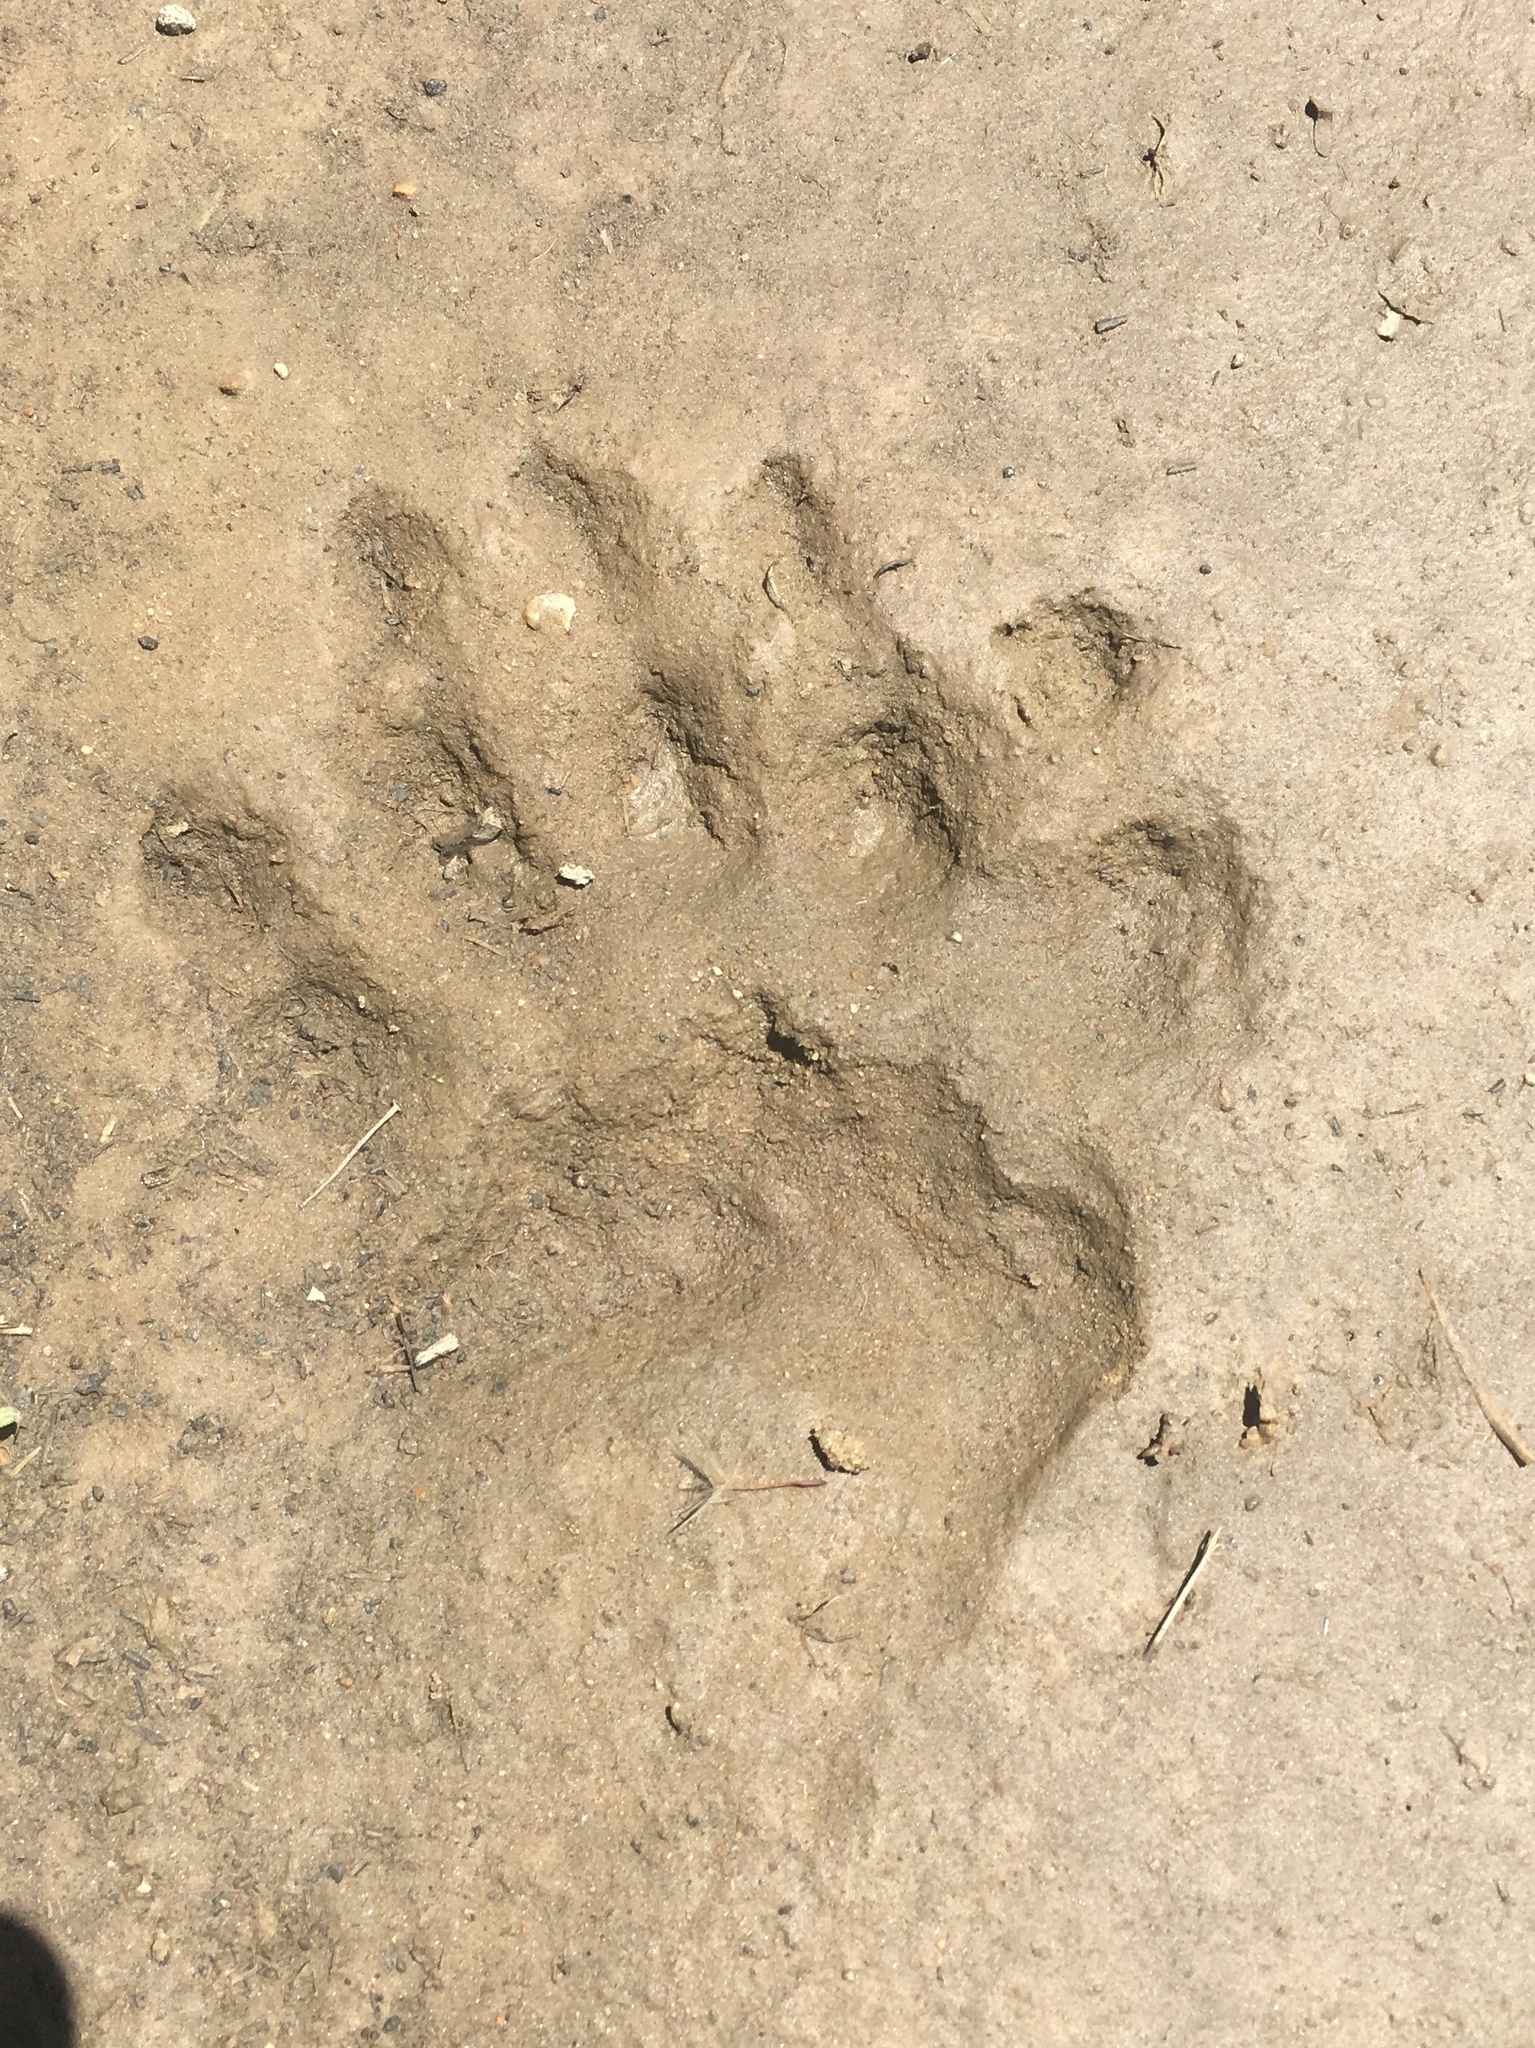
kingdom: Animalia
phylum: Chordata
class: Mammalia
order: Carnivora
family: Ursidae
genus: Ursus
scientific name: Ursus americanus
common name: American black bear
